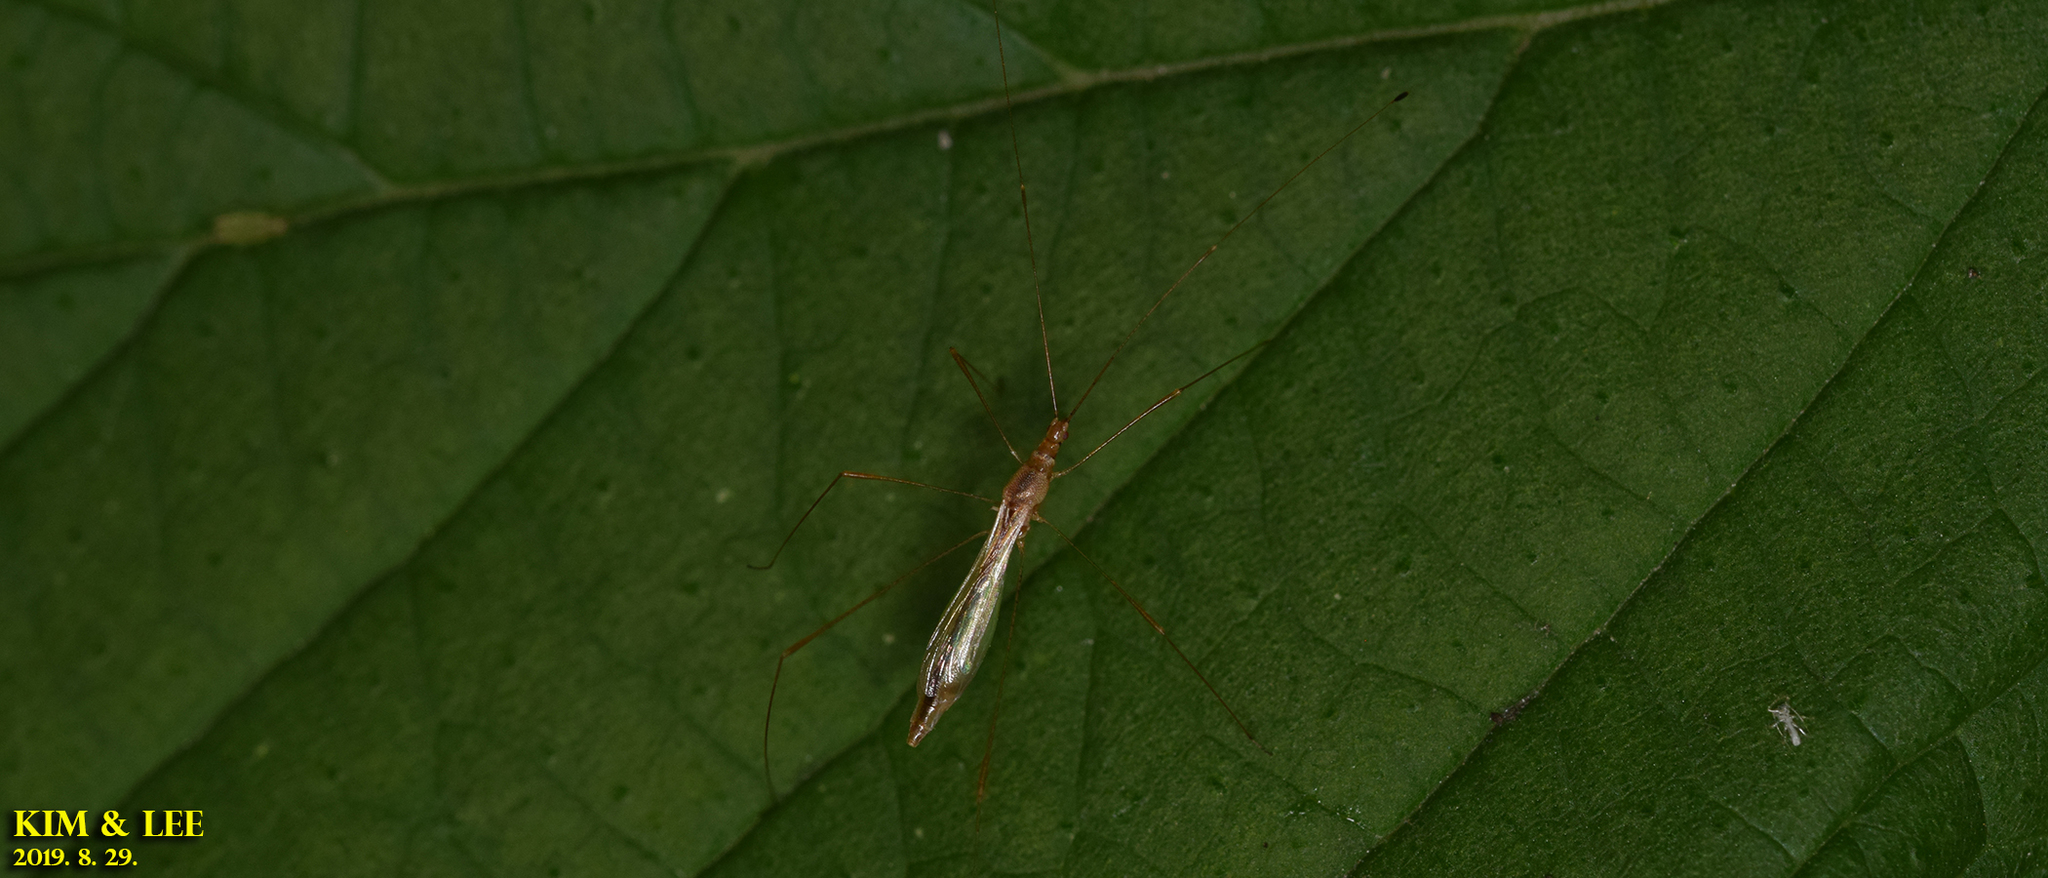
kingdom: Animalia
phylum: Arthropoda
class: Insecta
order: Hemiptera
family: Berytidae
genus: Yemma
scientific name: Yemma exilis
